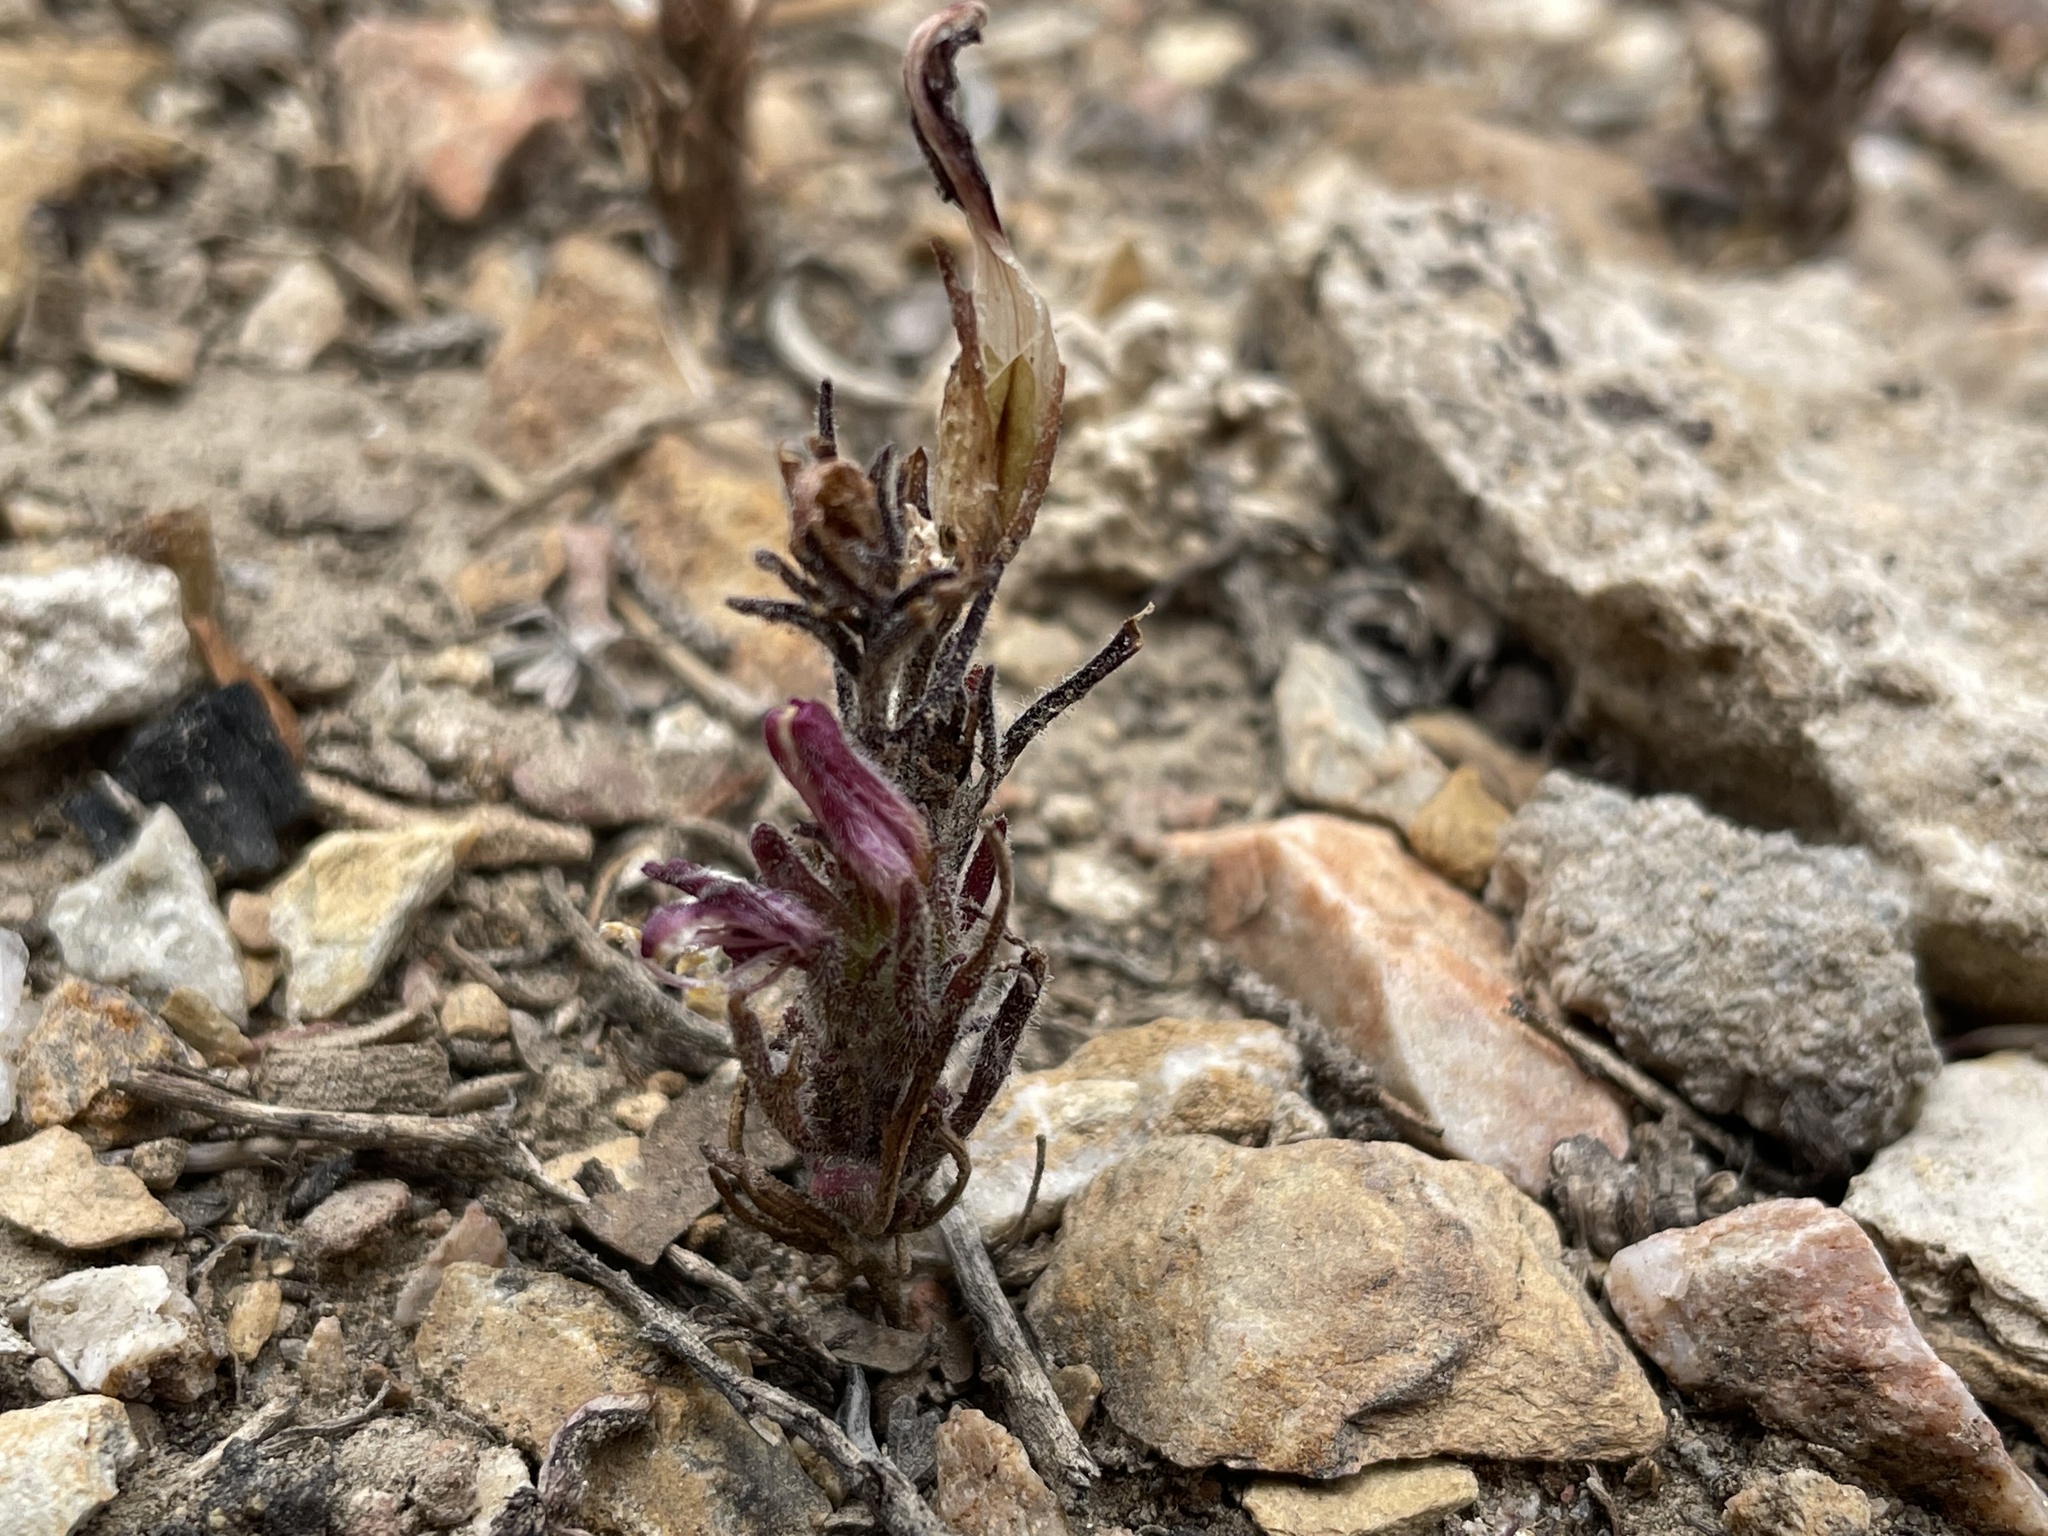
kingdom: Plantae
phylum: Tracheophyta
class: Magnoliopsida
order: Lamiales
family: Orobanchaceae
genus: Cordylanthus
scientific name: Cordylanthus kingii
